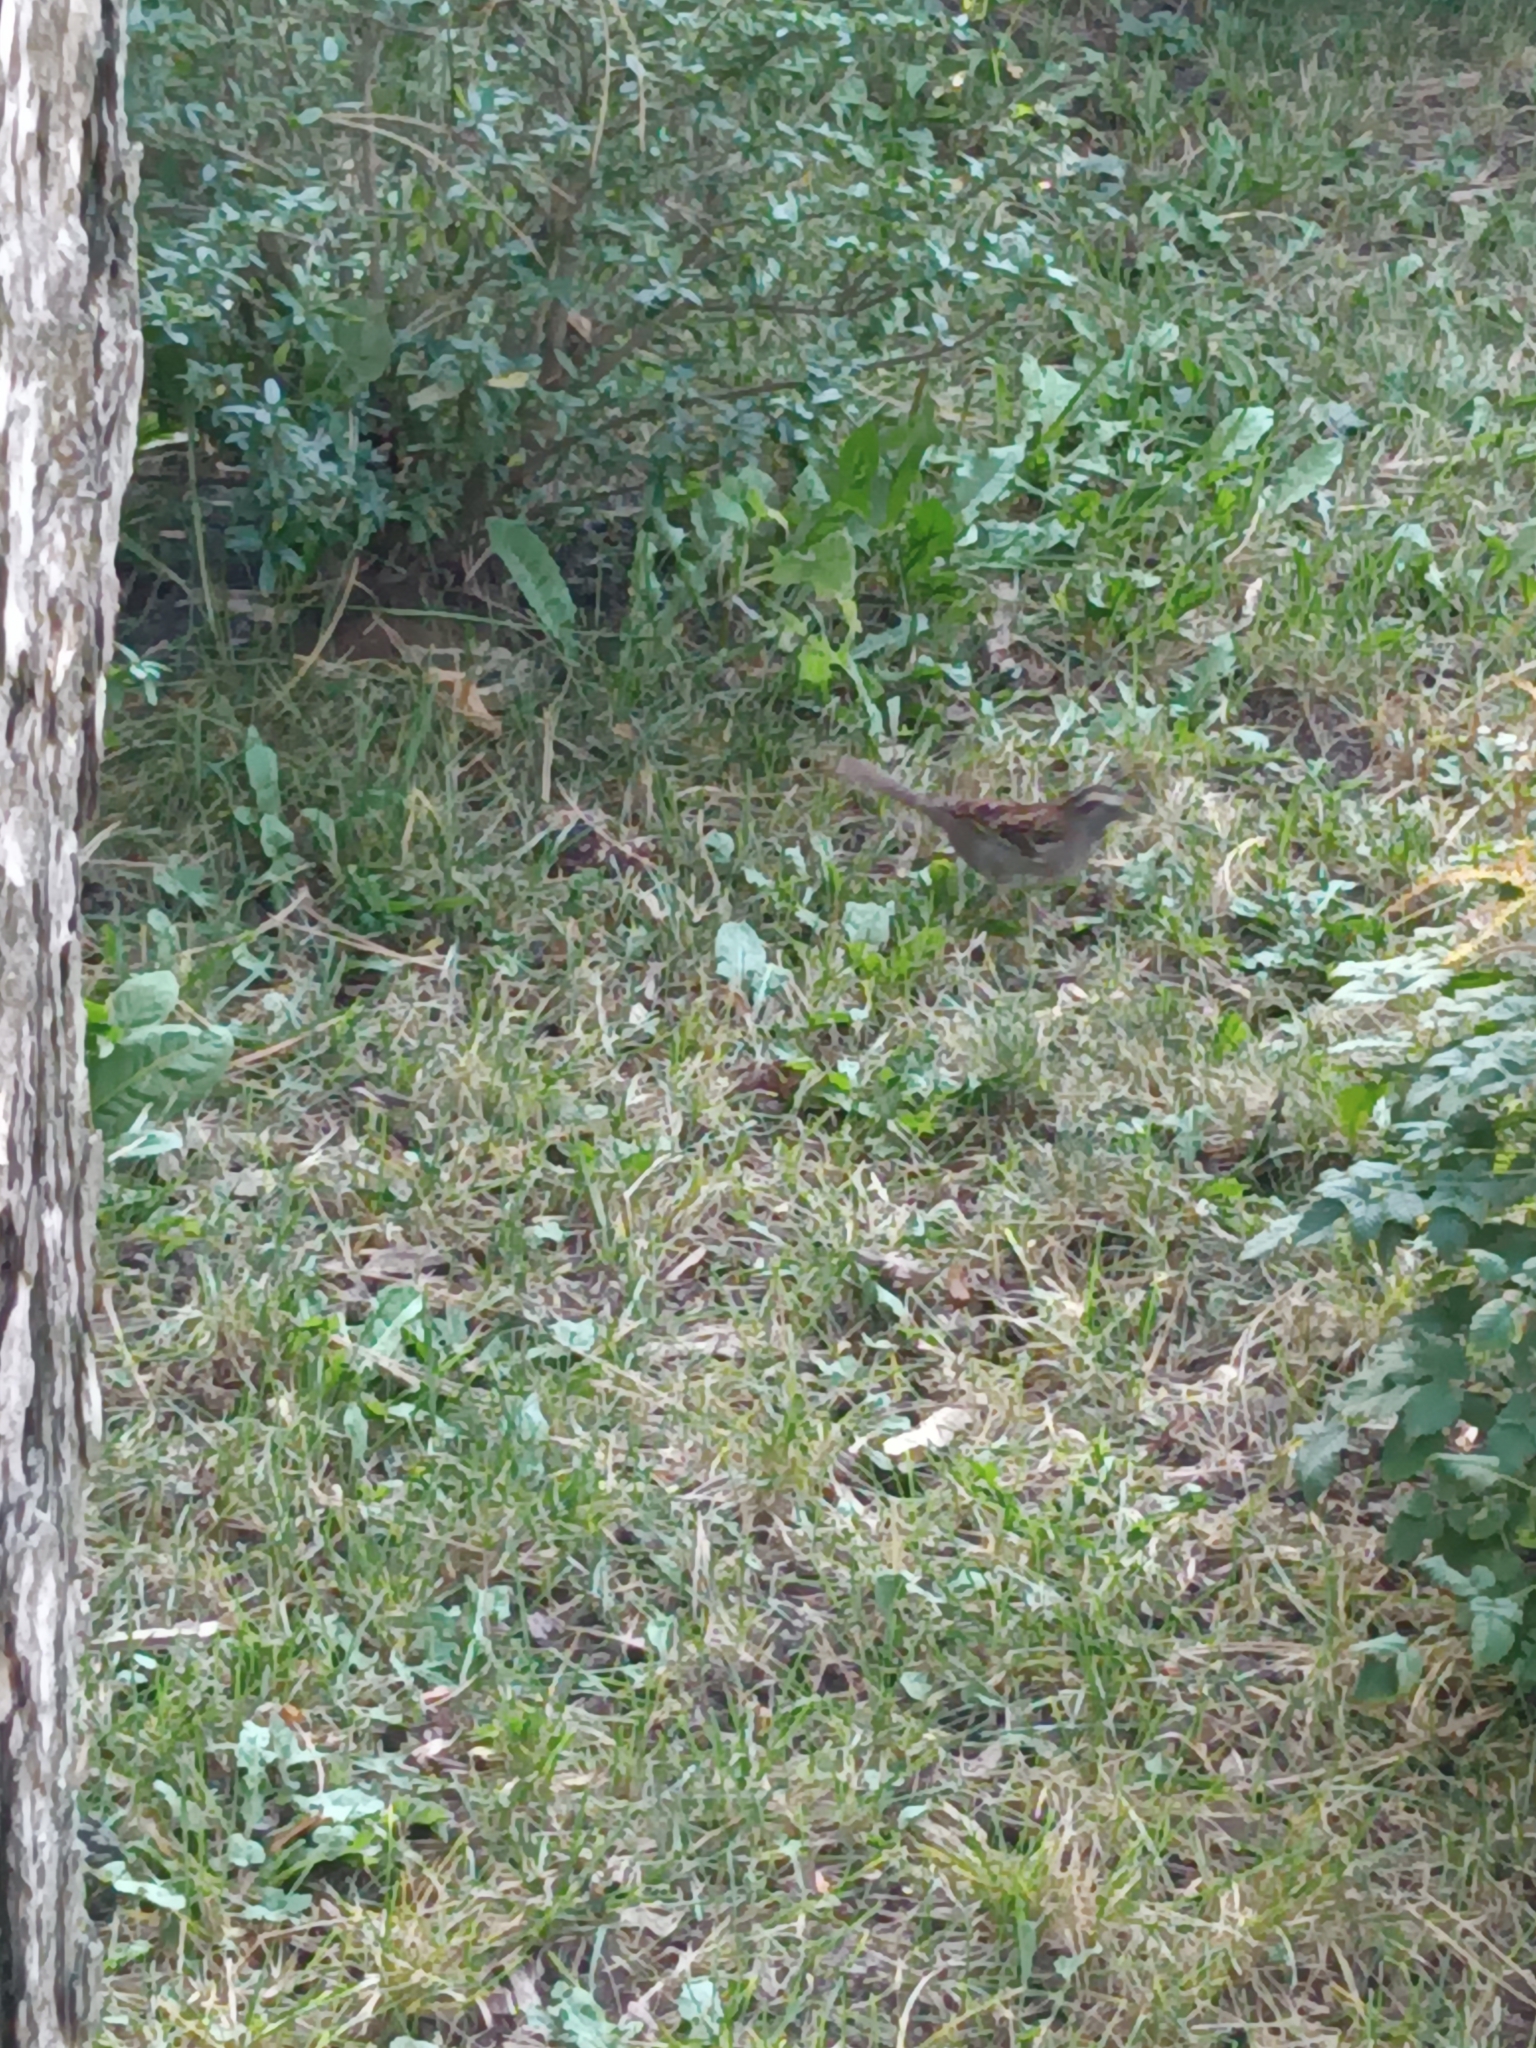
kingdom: Animalia
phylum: Chordata
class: Aves
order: Passeriformes
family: Passerellidae
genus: Zonotrichia
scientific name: Zonotrichia albicollis
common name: White-throated sparrow
